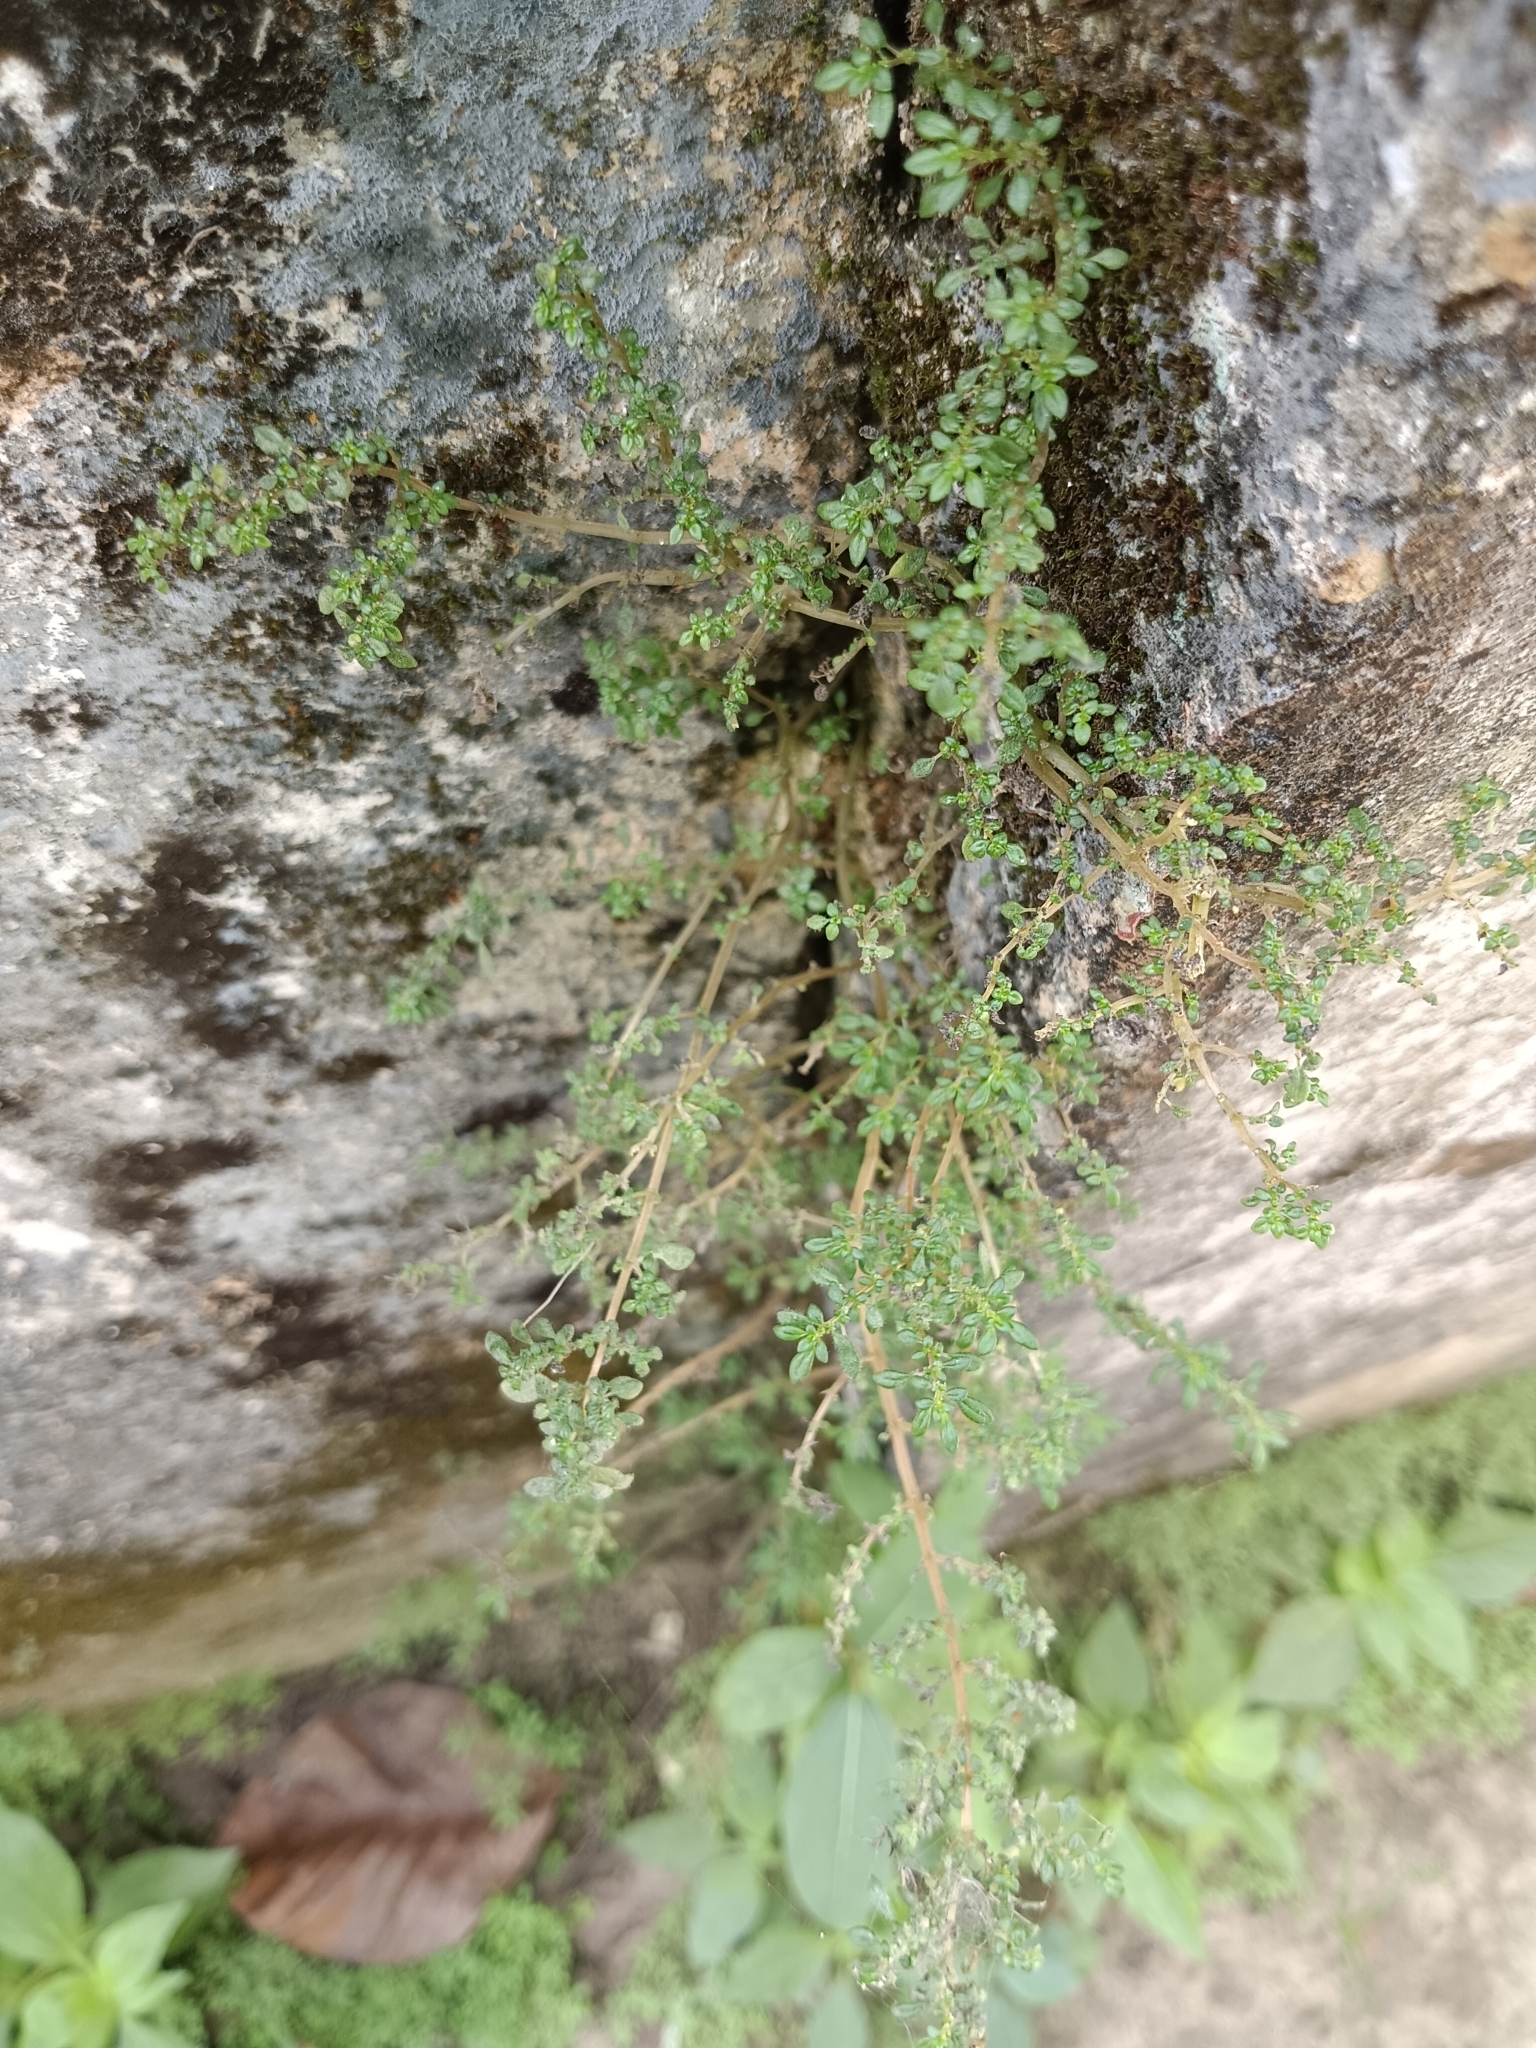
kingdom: Plantae
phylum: Tracheophyta
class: Magnoliopsida
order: Rosales
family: Urticaceae
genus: Pilea
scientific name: Pilea microphylla
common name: Artillery-plant
